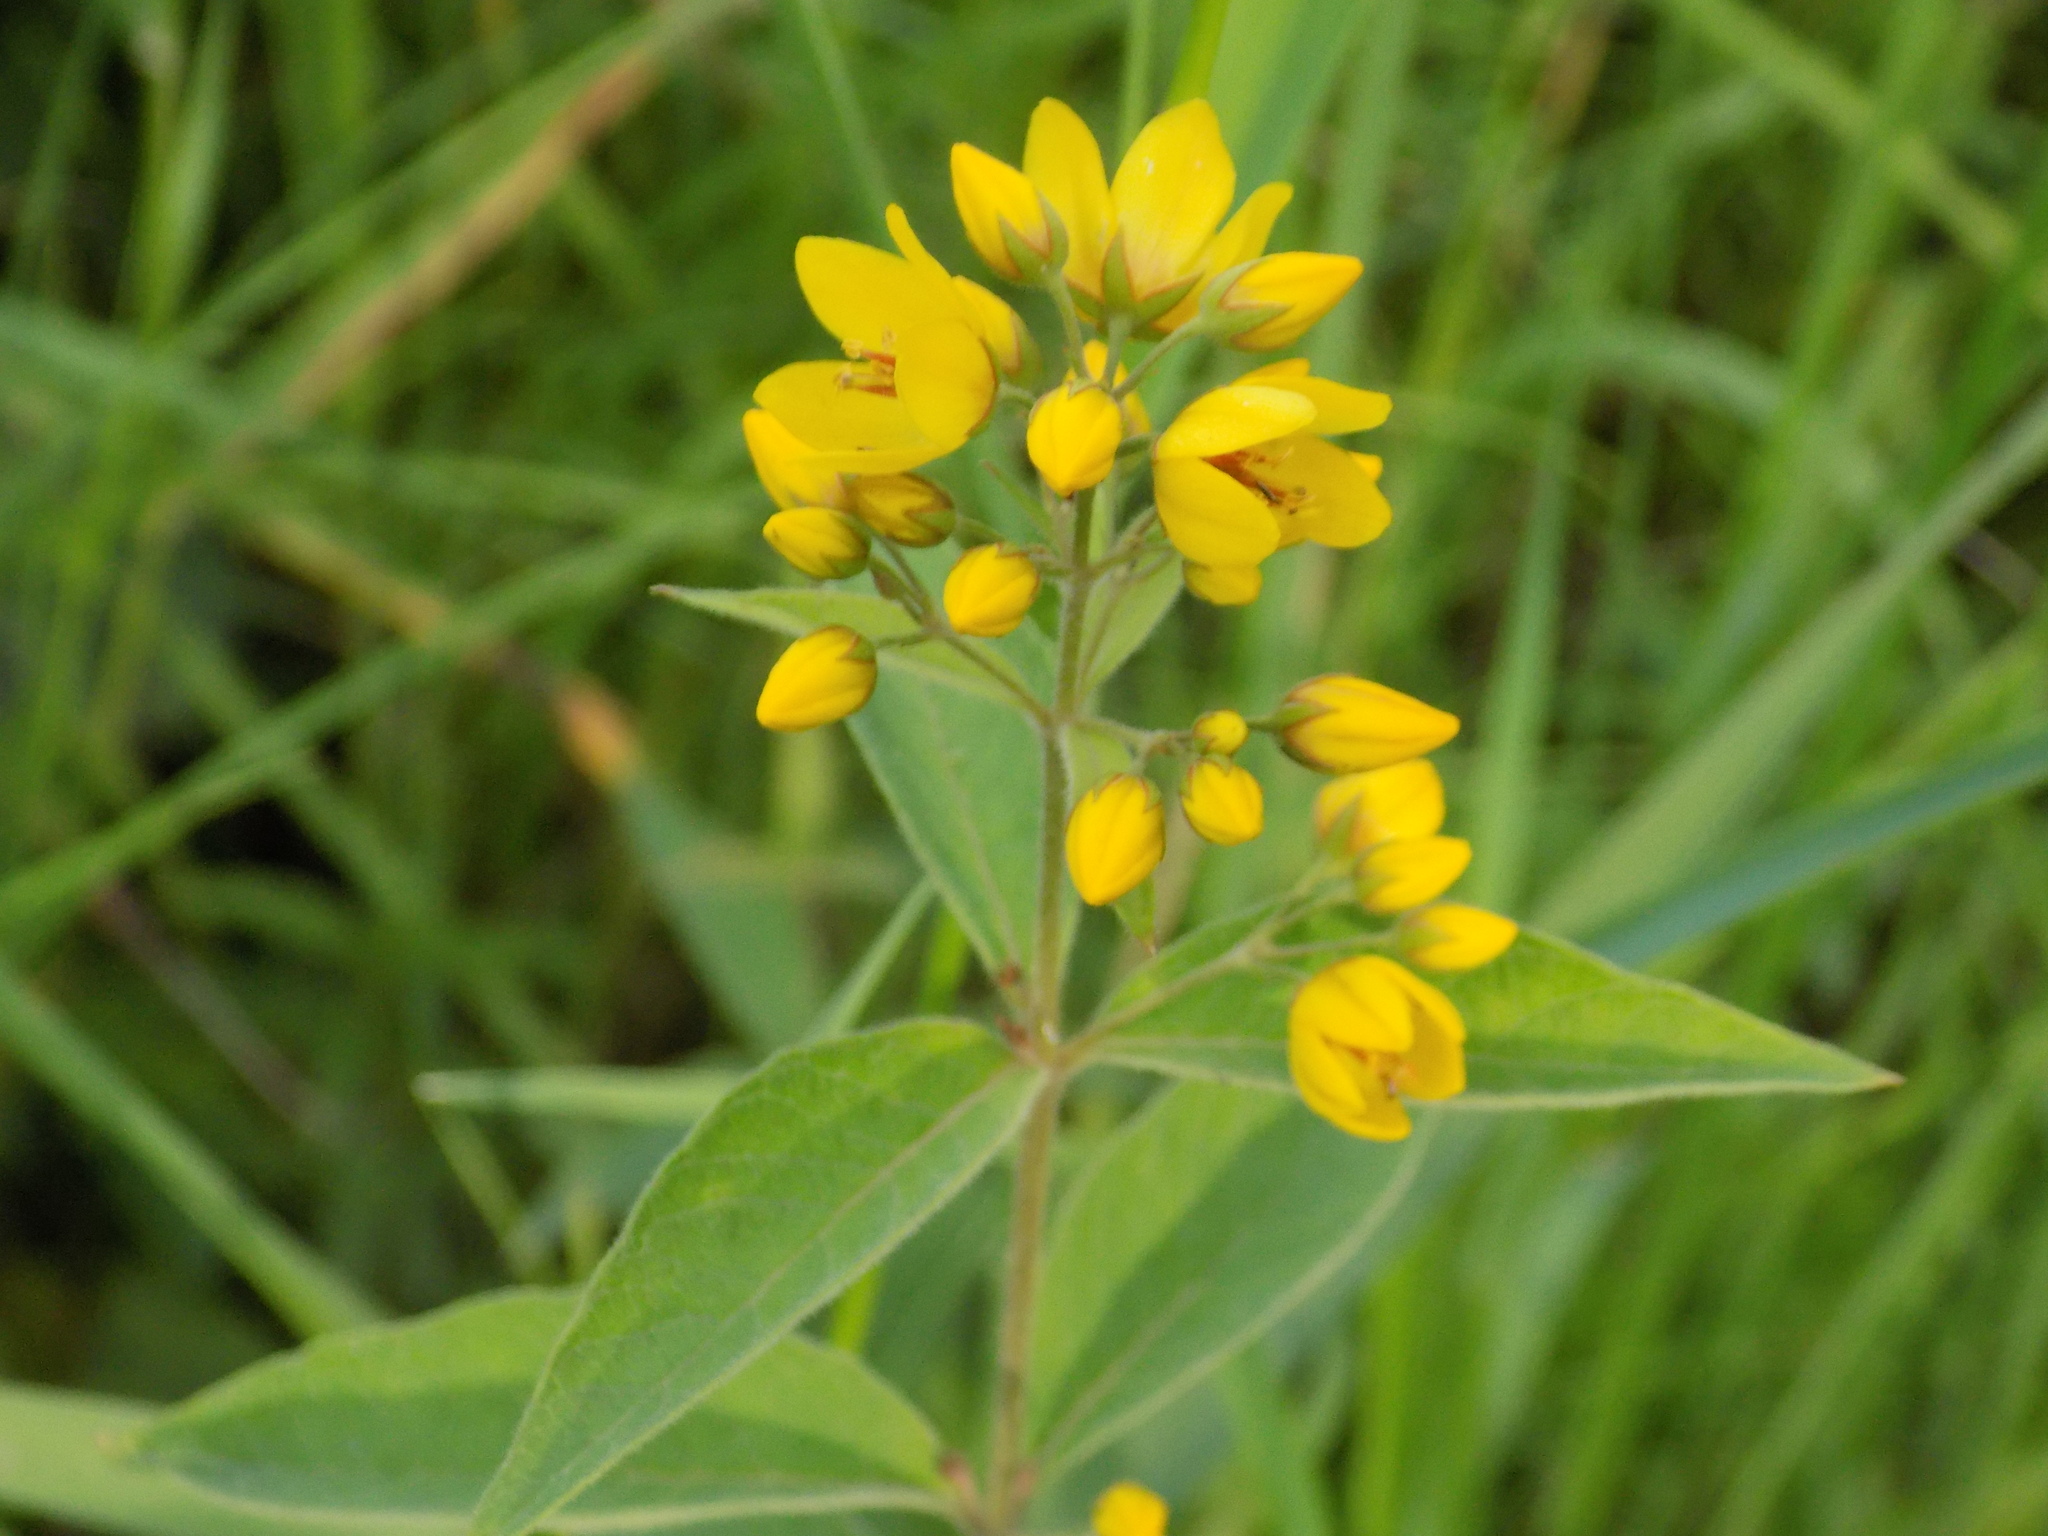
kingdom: Plantae
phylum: Tracheophyta
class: Magnoliopsida
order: Ericales
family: Primulaceae
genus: Lysimachia
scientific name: Lysimachia vulgaris
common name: Yellow loosestrife
